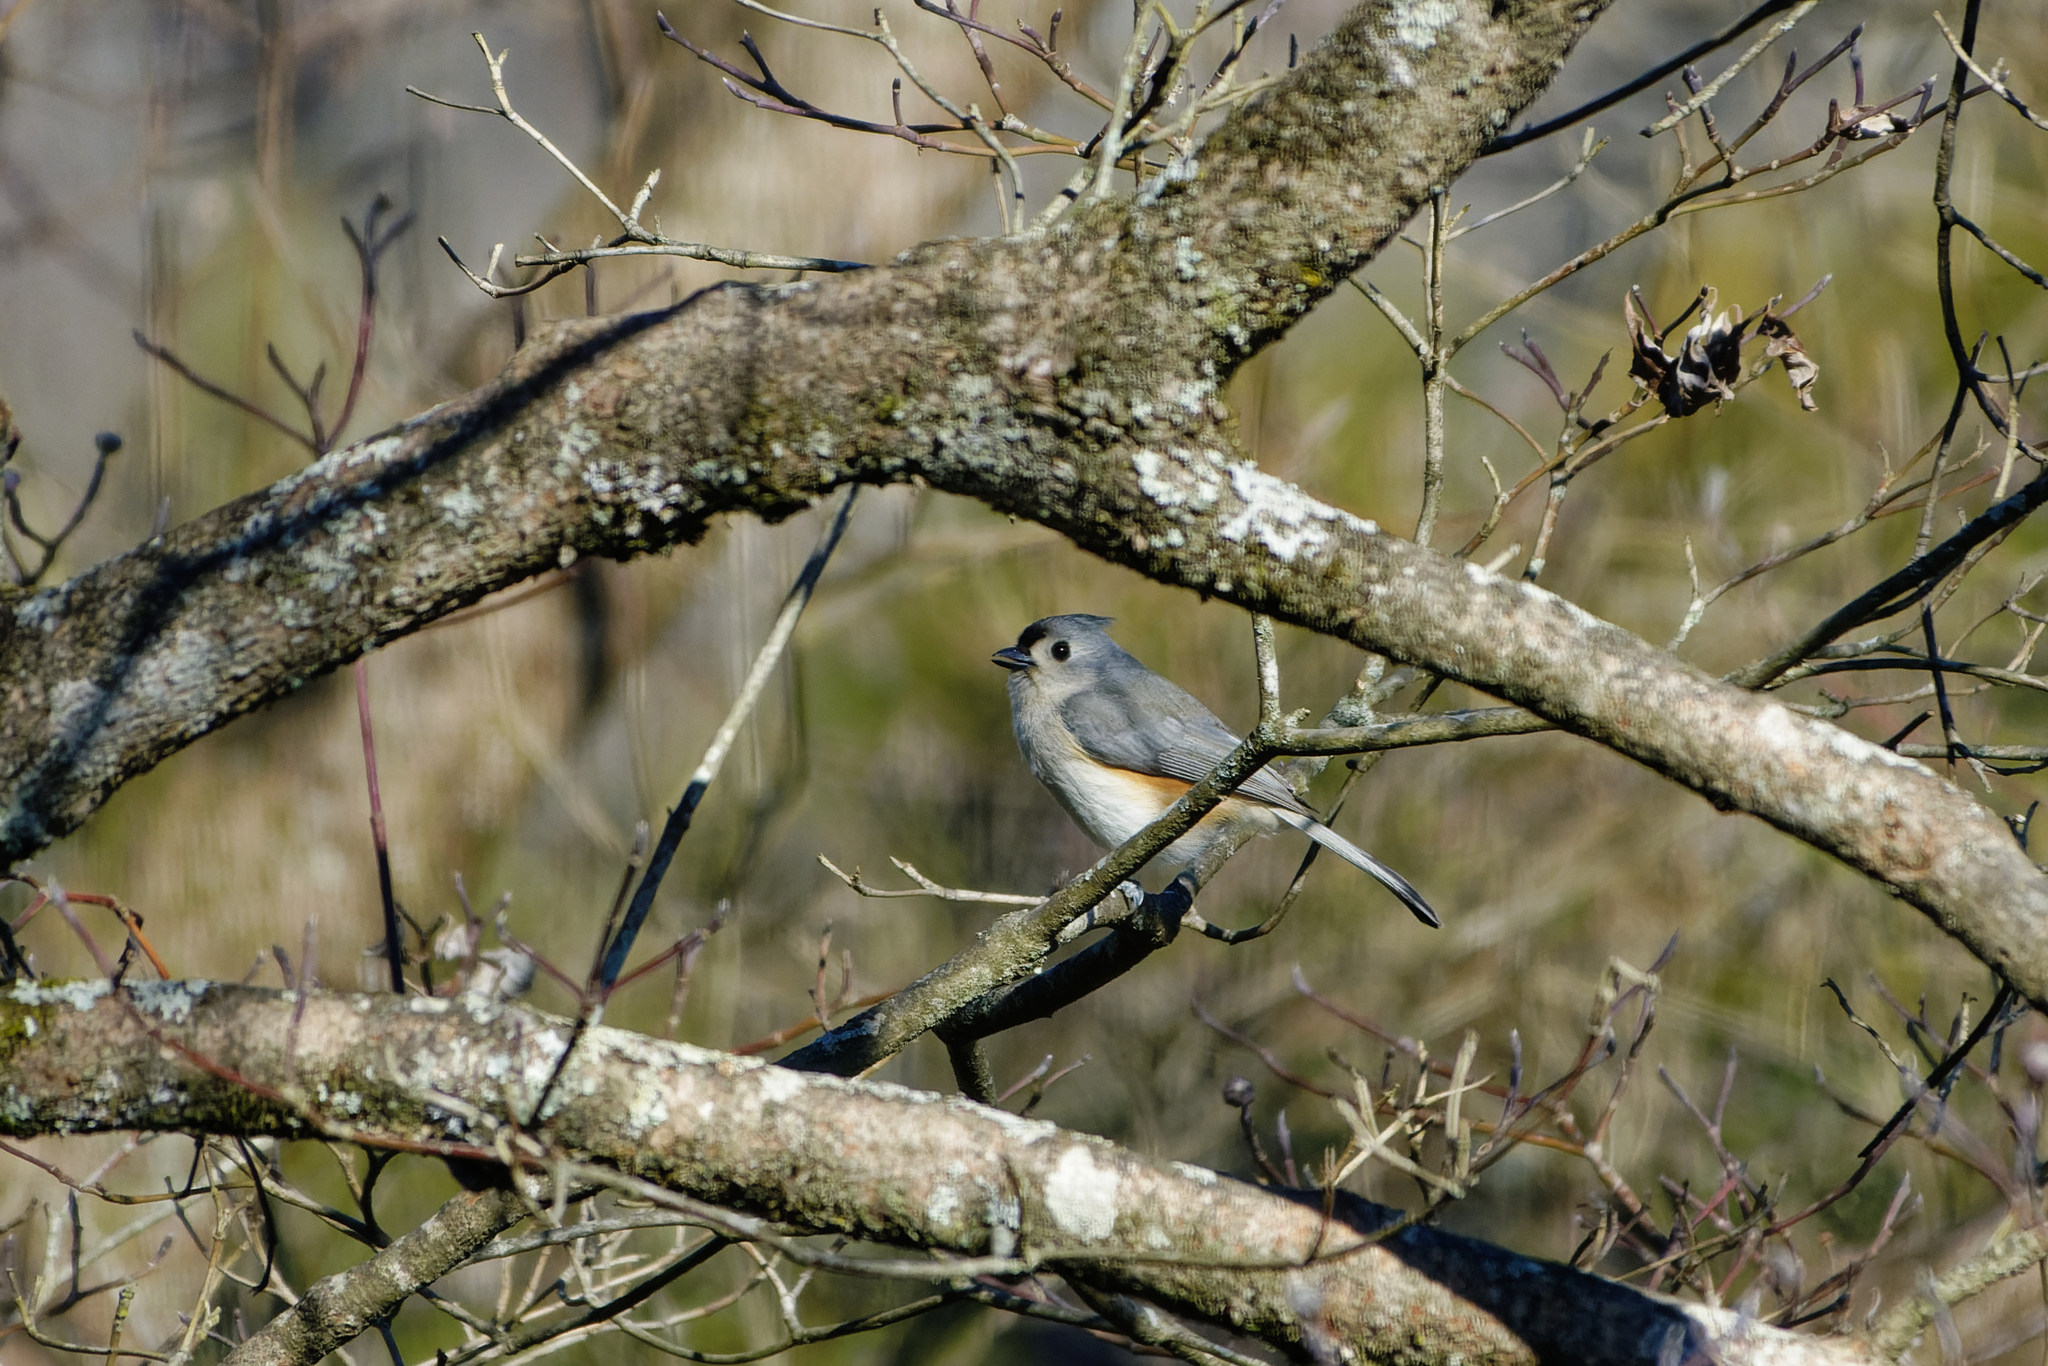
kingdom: Animalia
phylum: Chordata
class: Aves
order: Passeriformes
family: Paridae
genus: Baeolophus
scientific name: Baeolophus bicolor
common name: Tufted titmouse
